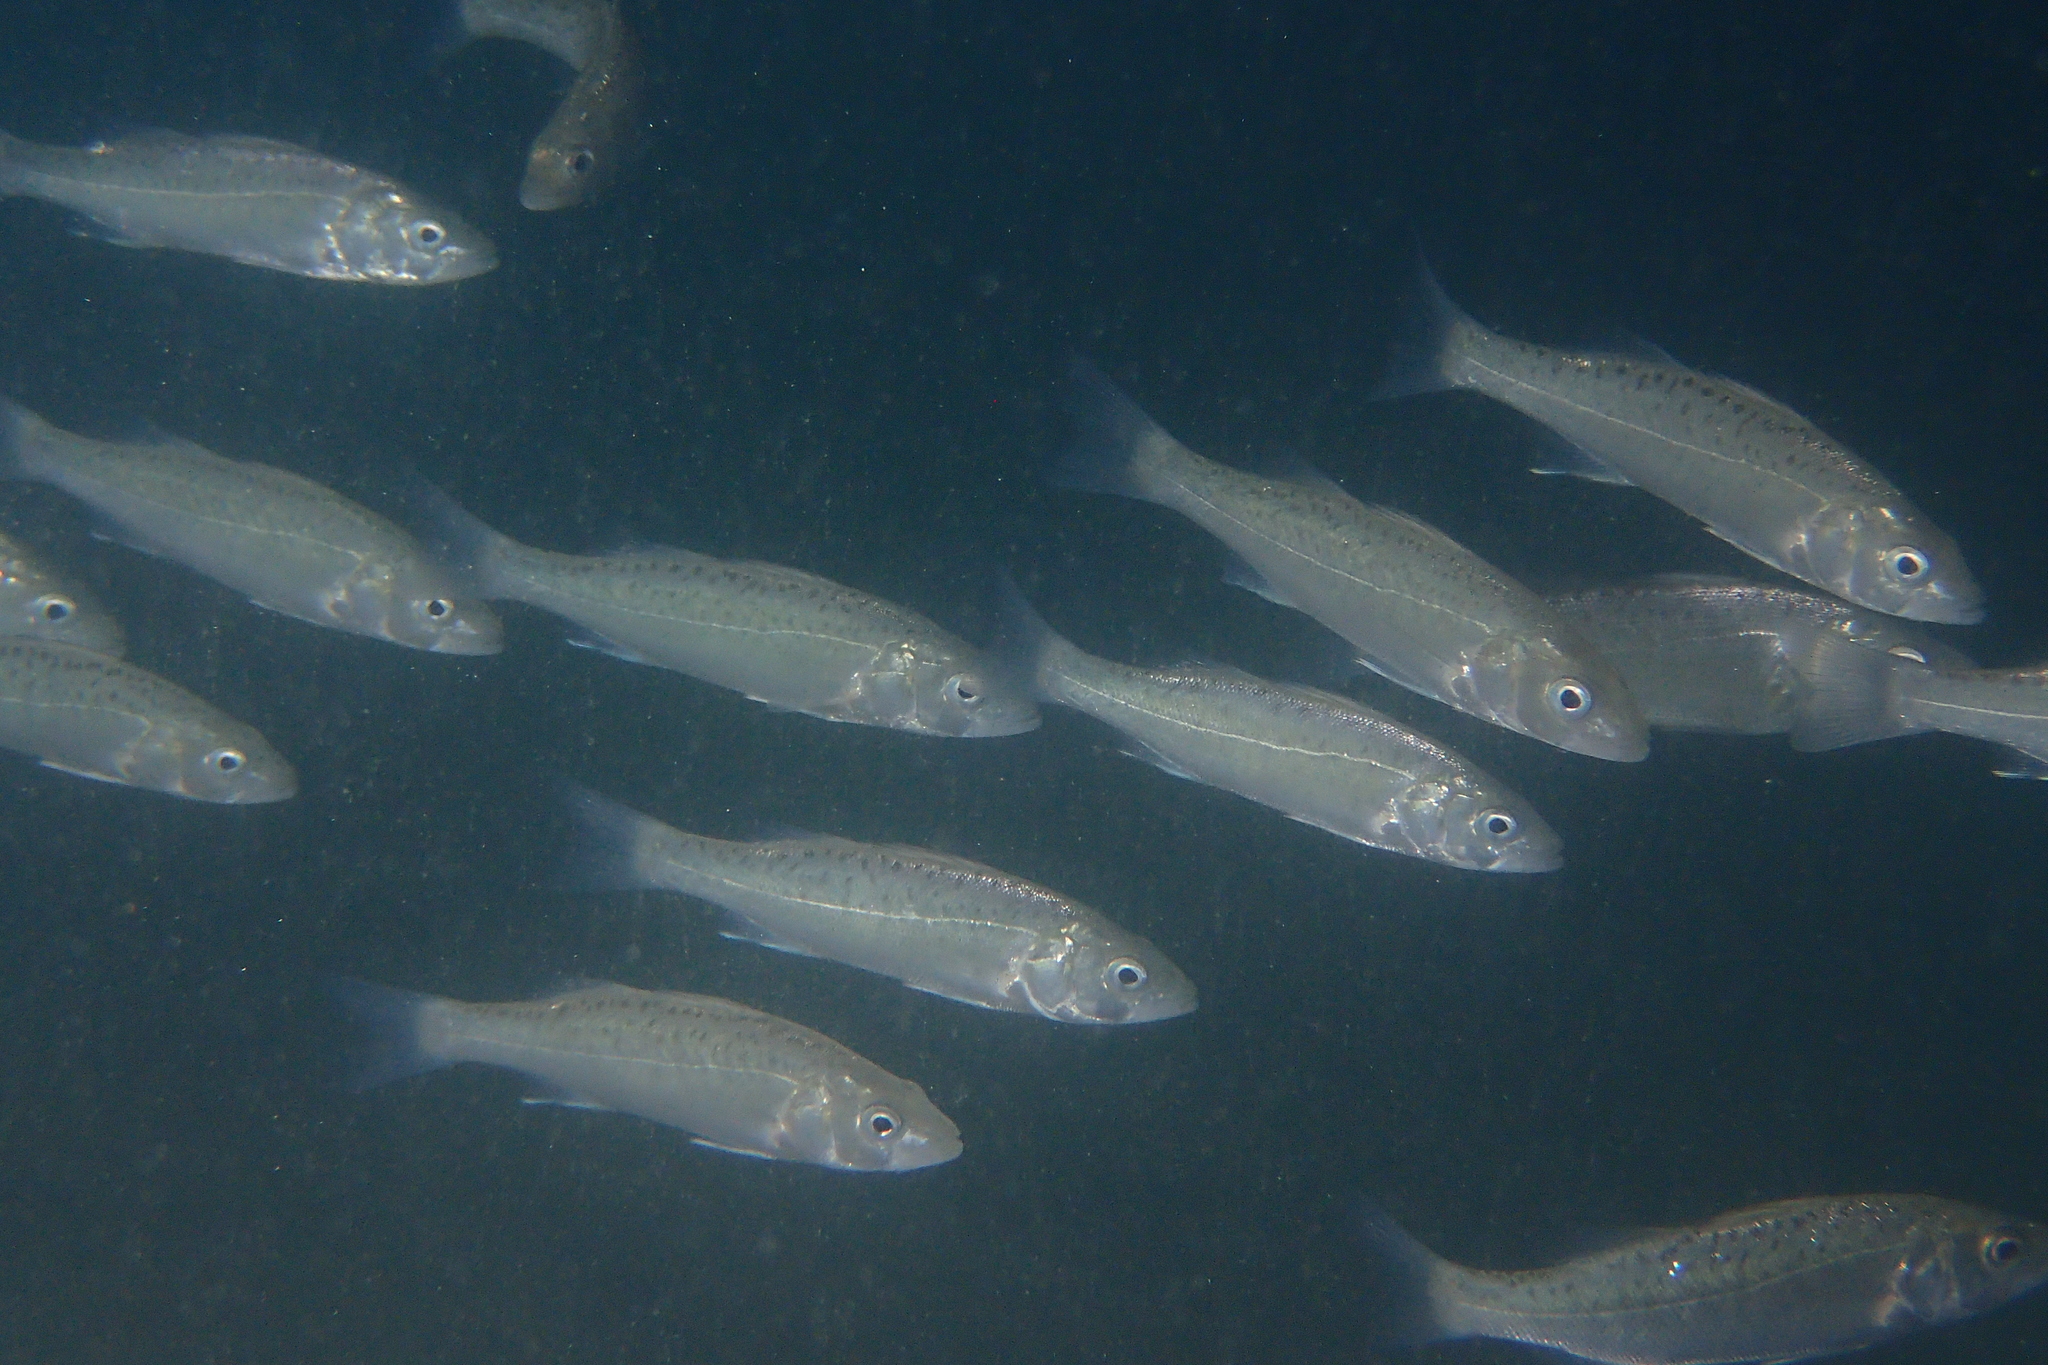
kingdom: Animalia
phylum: Chordata
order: Perciformes
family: Moronidae
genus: Dicentrarchus
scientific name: Dicentrarchus labrax
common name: European seabass
